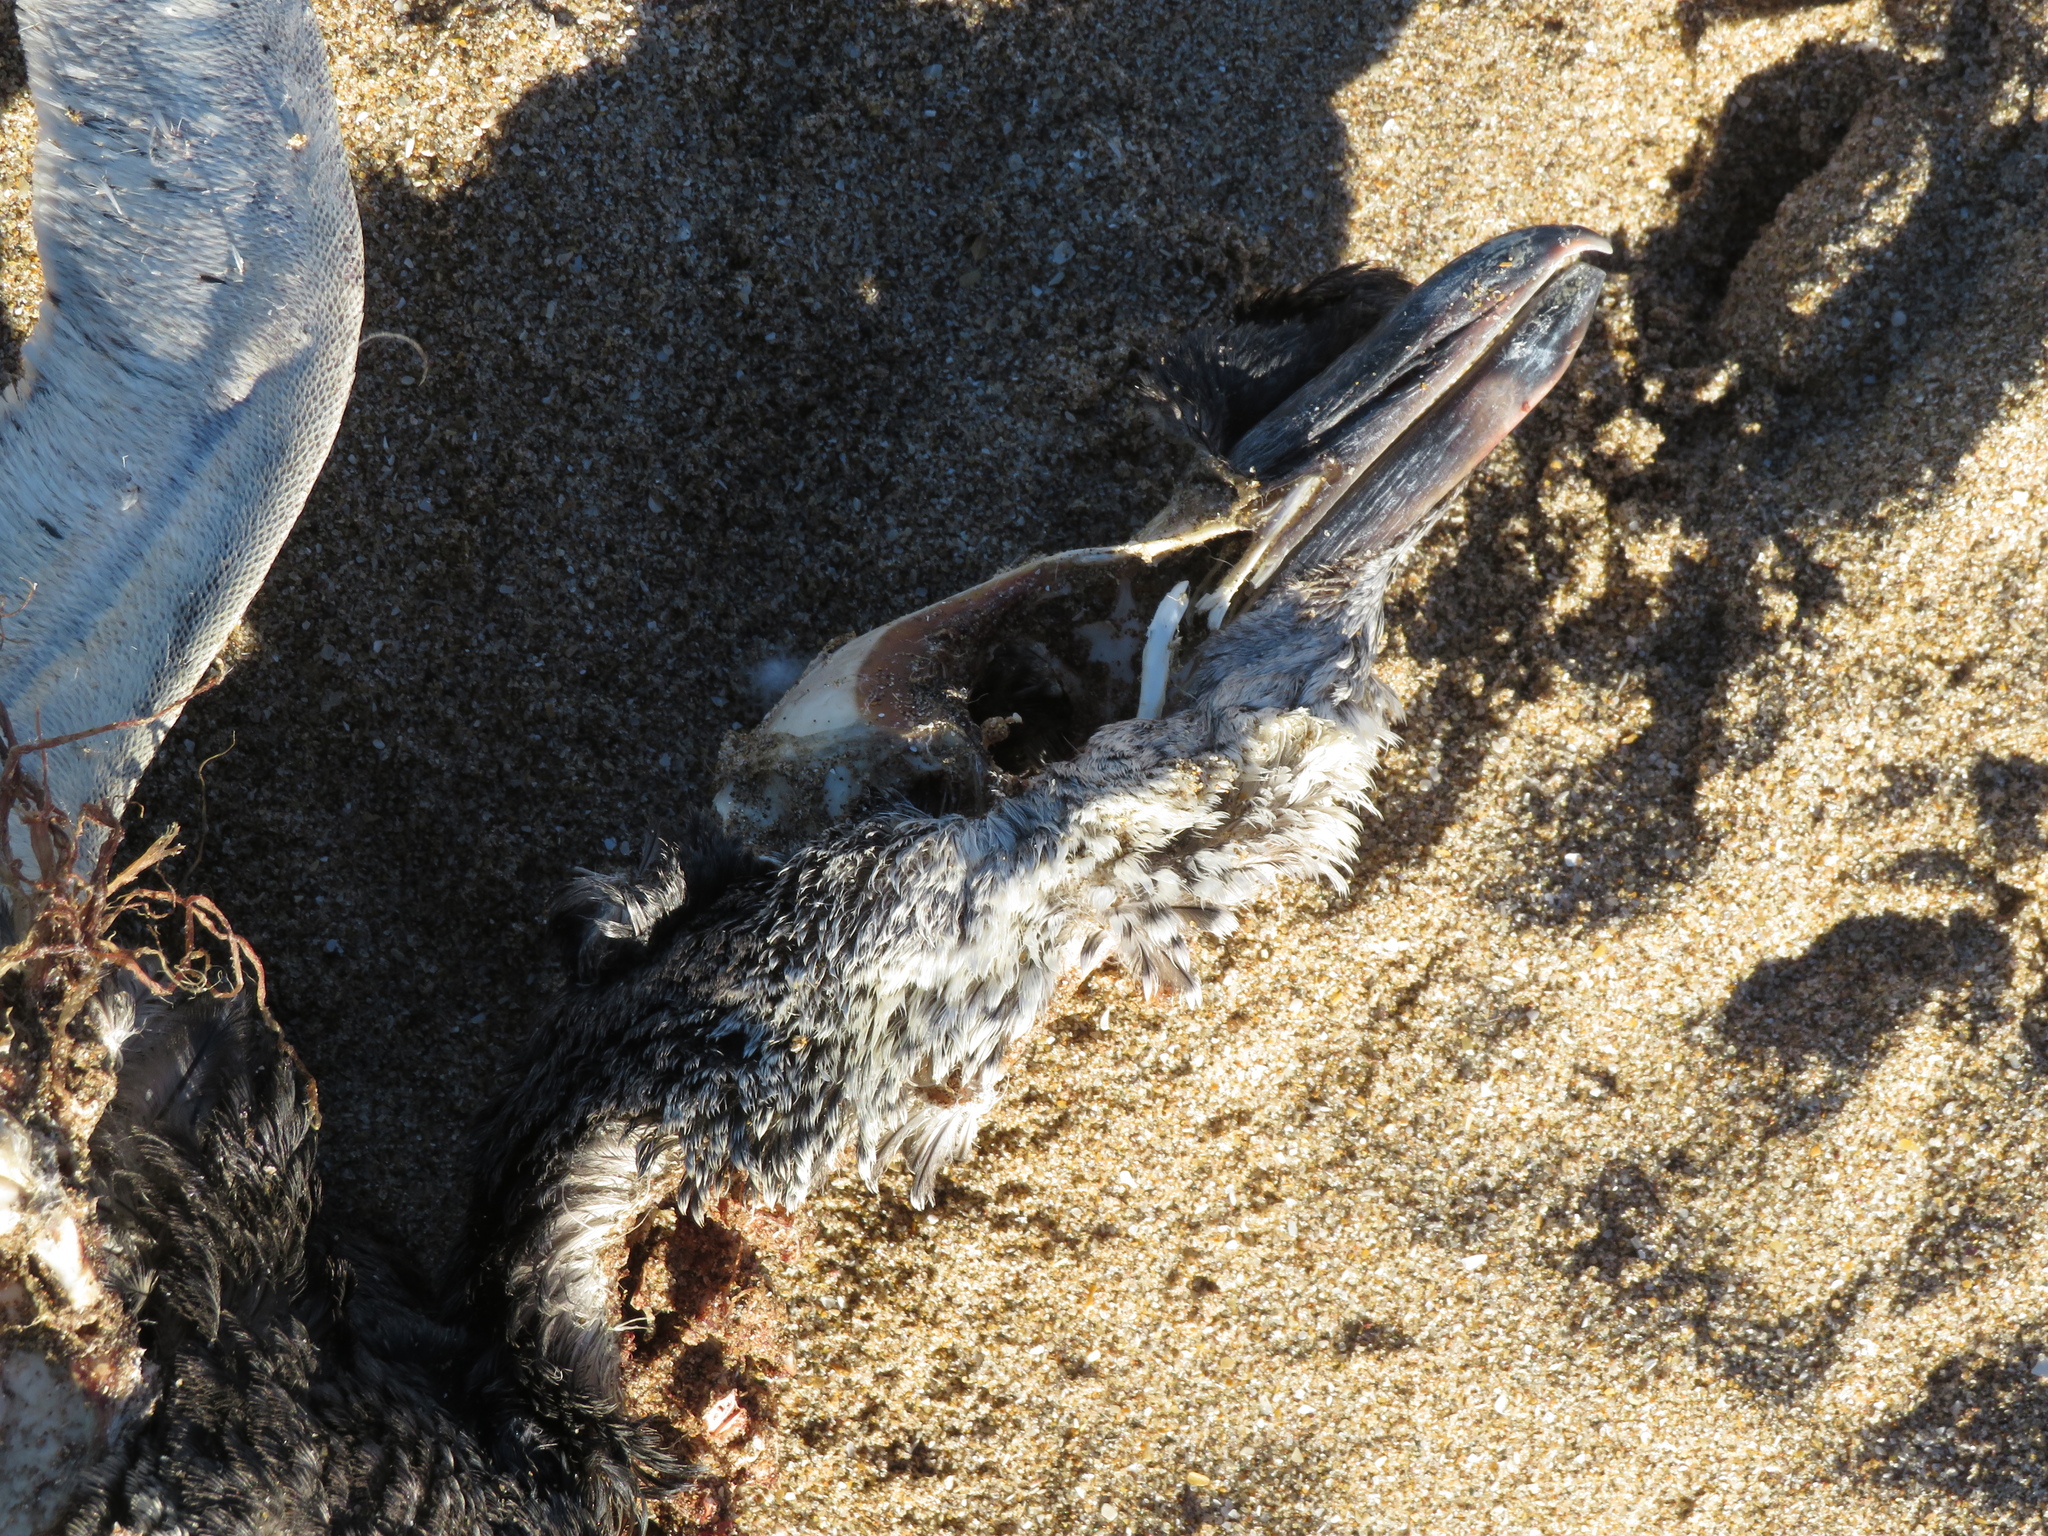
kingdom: Animalia
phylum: Chordata
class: Aves
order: Sphenisciformes
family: Spheniscidae
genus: Spheniscus
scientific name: Spheniscus magellanicus
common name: Magellanic penguin
